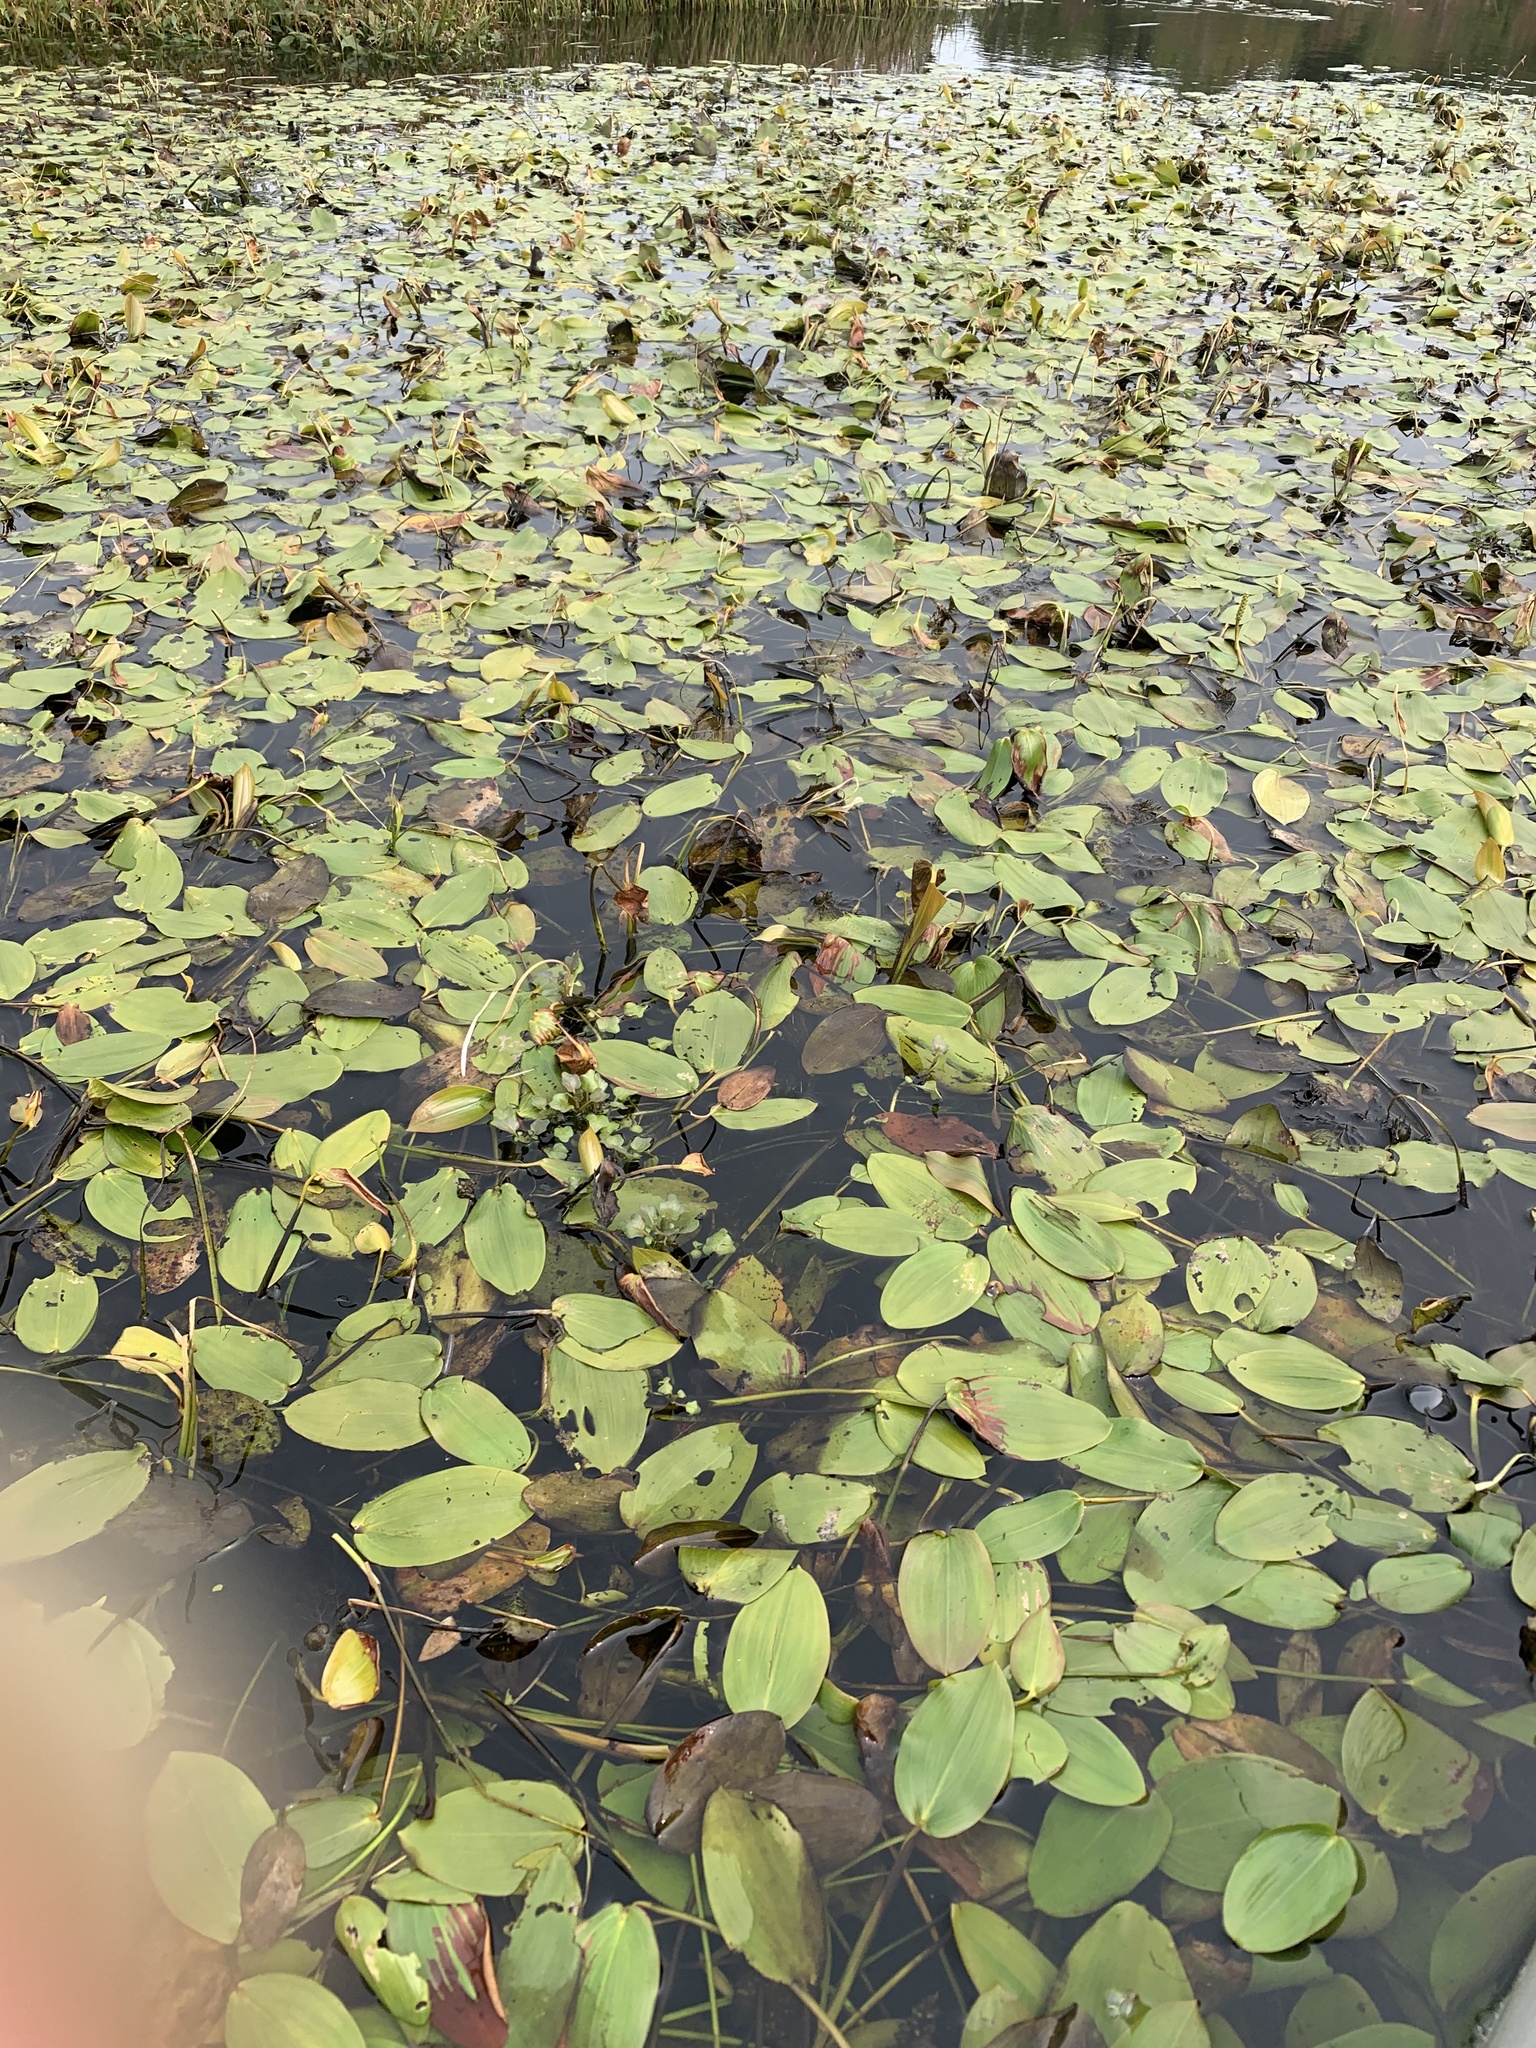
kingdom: Plantae
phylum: Tracheophyta
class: Liliopsida
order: Alismatales
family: Potamogetonaceae
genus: Potamogeton
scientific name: Potamogeton natans
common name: Broad-leaved pondweed
